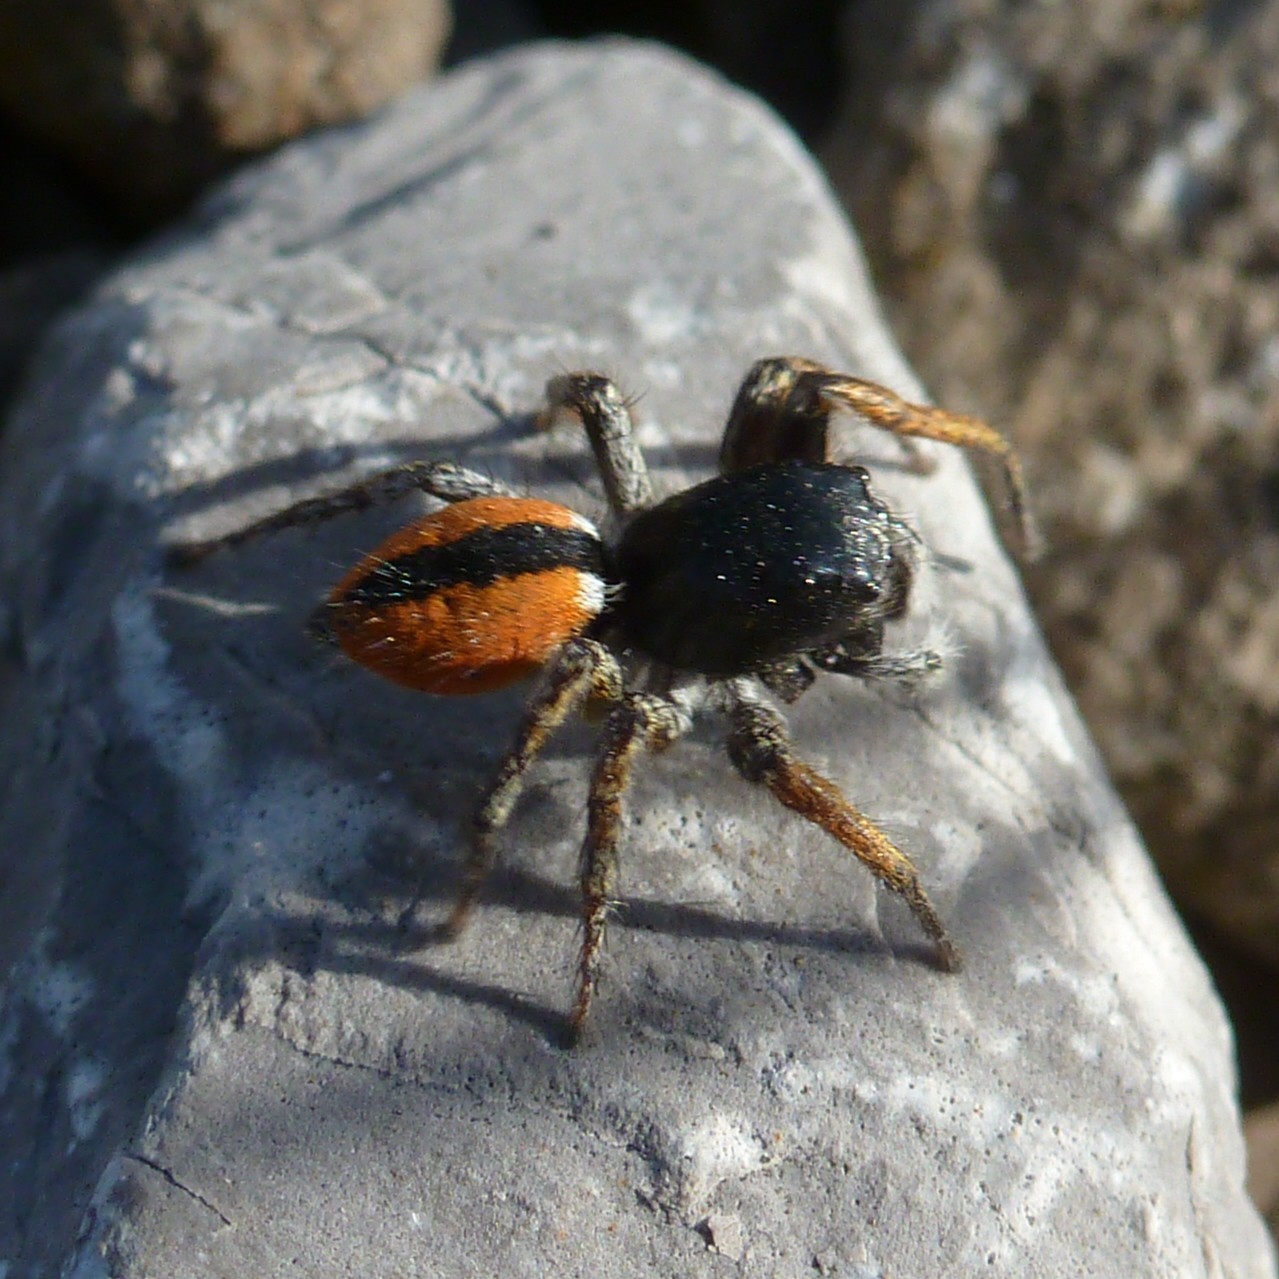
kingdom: Animalia
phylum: Arthropoda
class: Arachnida
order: Araneae
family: Salticidae
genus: Philaeus
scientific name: Philaeus chrysops
